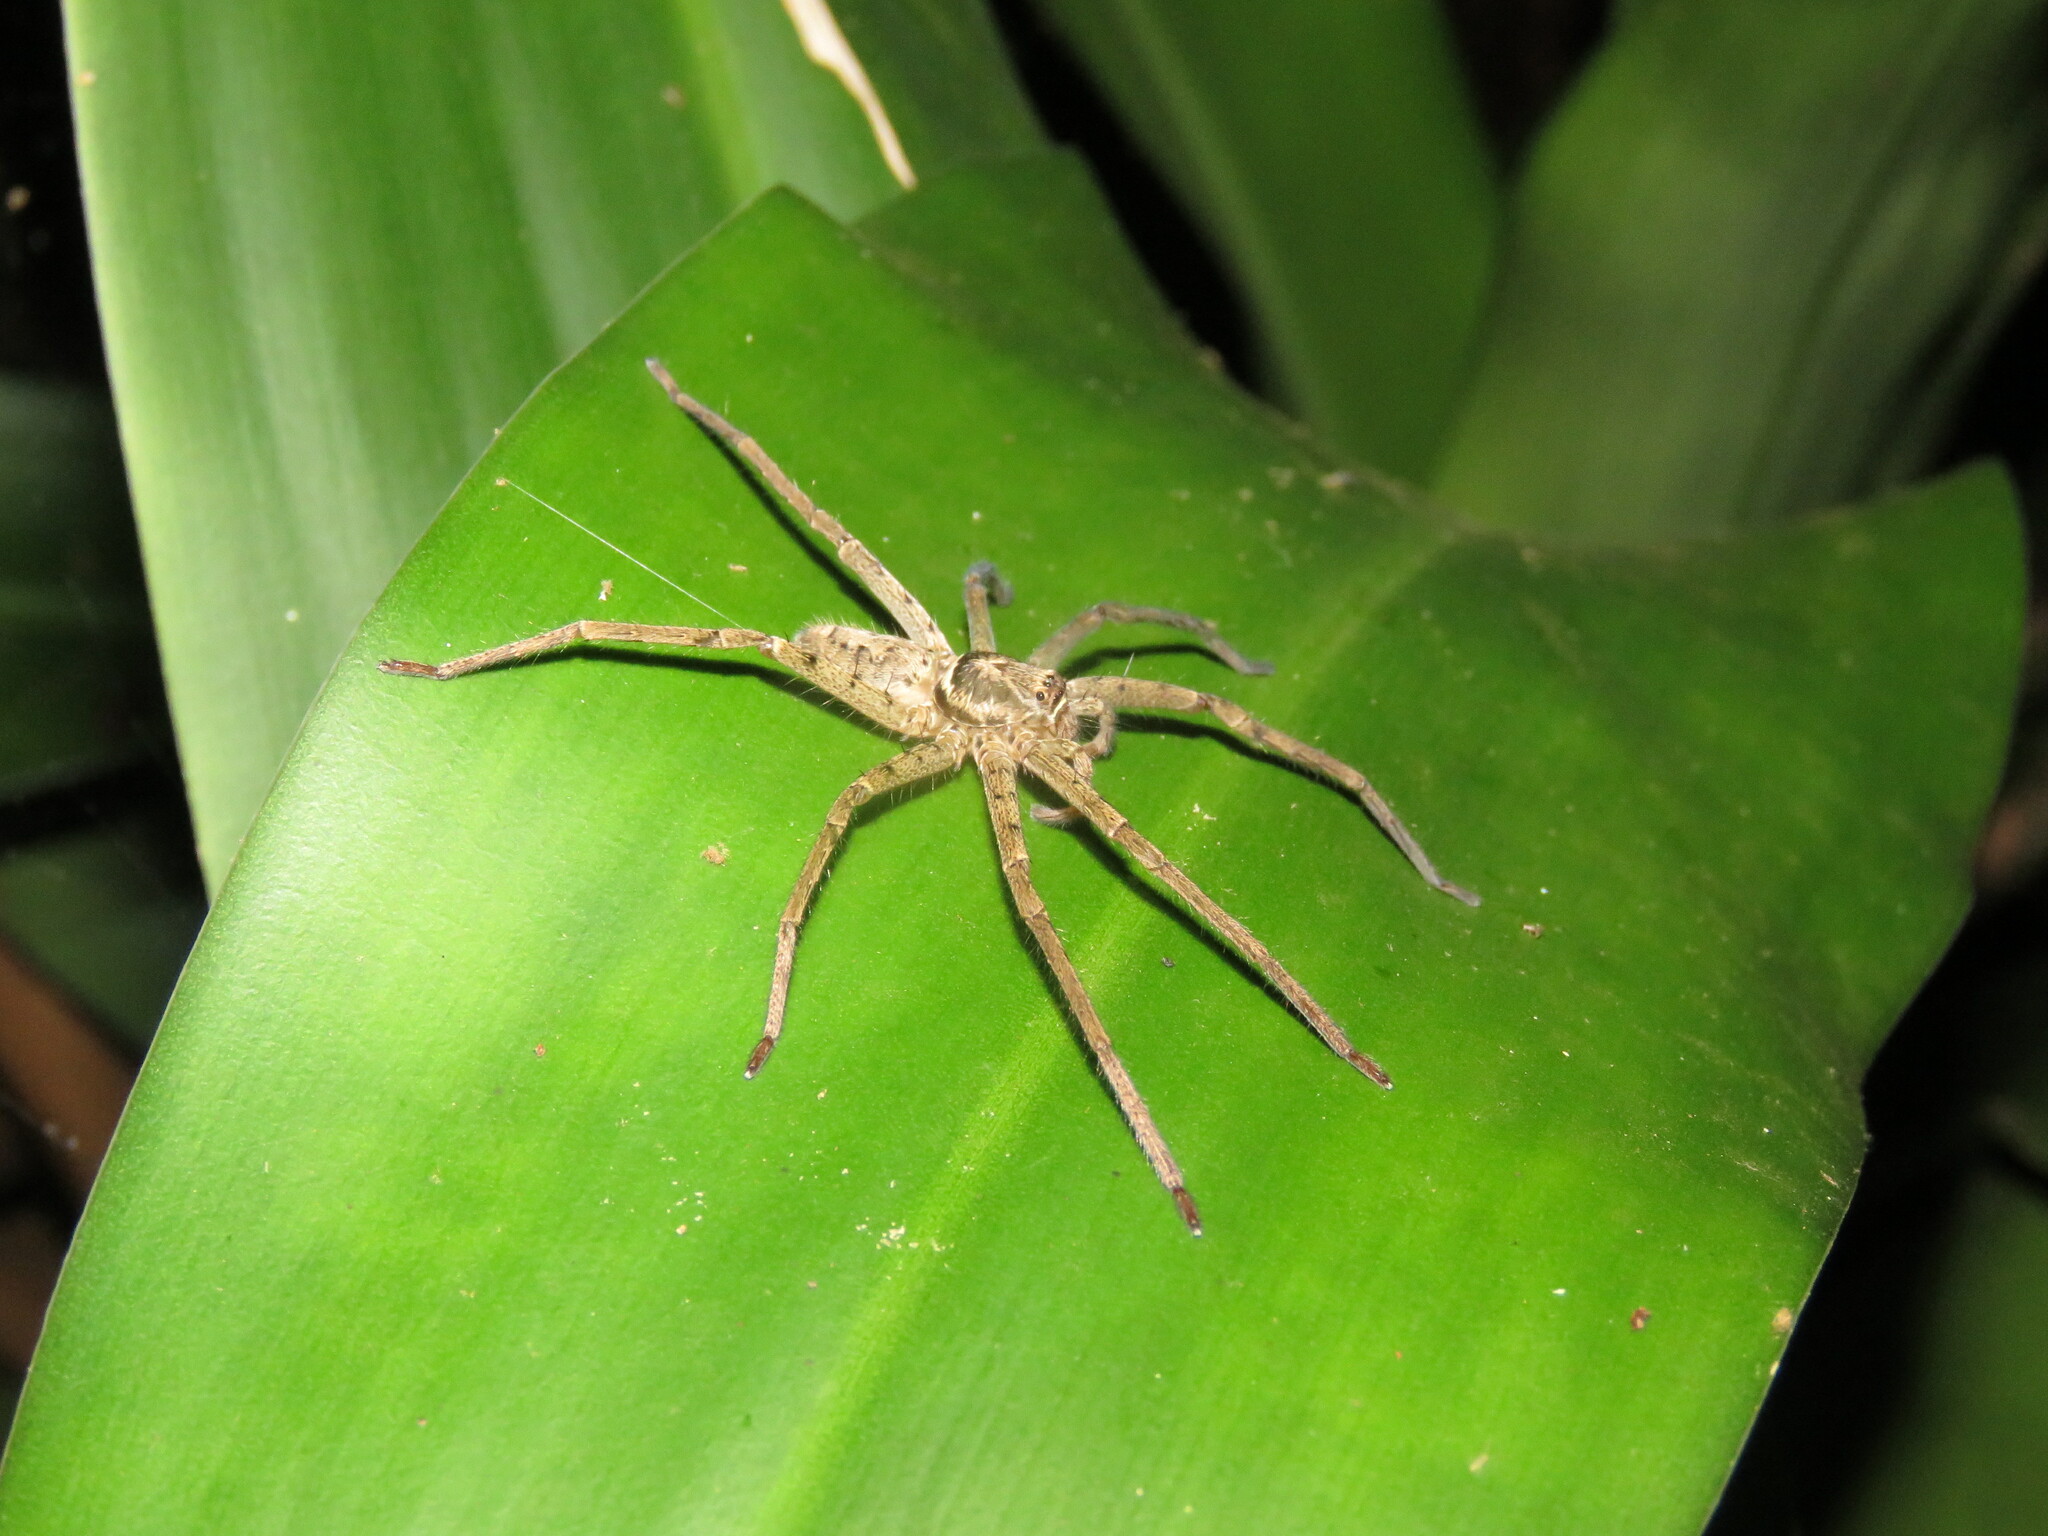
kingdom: Animalia
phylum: Arthropoda
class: Arachnida
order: Araneae
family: Sparassidae
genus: Heteropoda
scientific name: Heteropoda venatoria
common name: Huntsman spider
